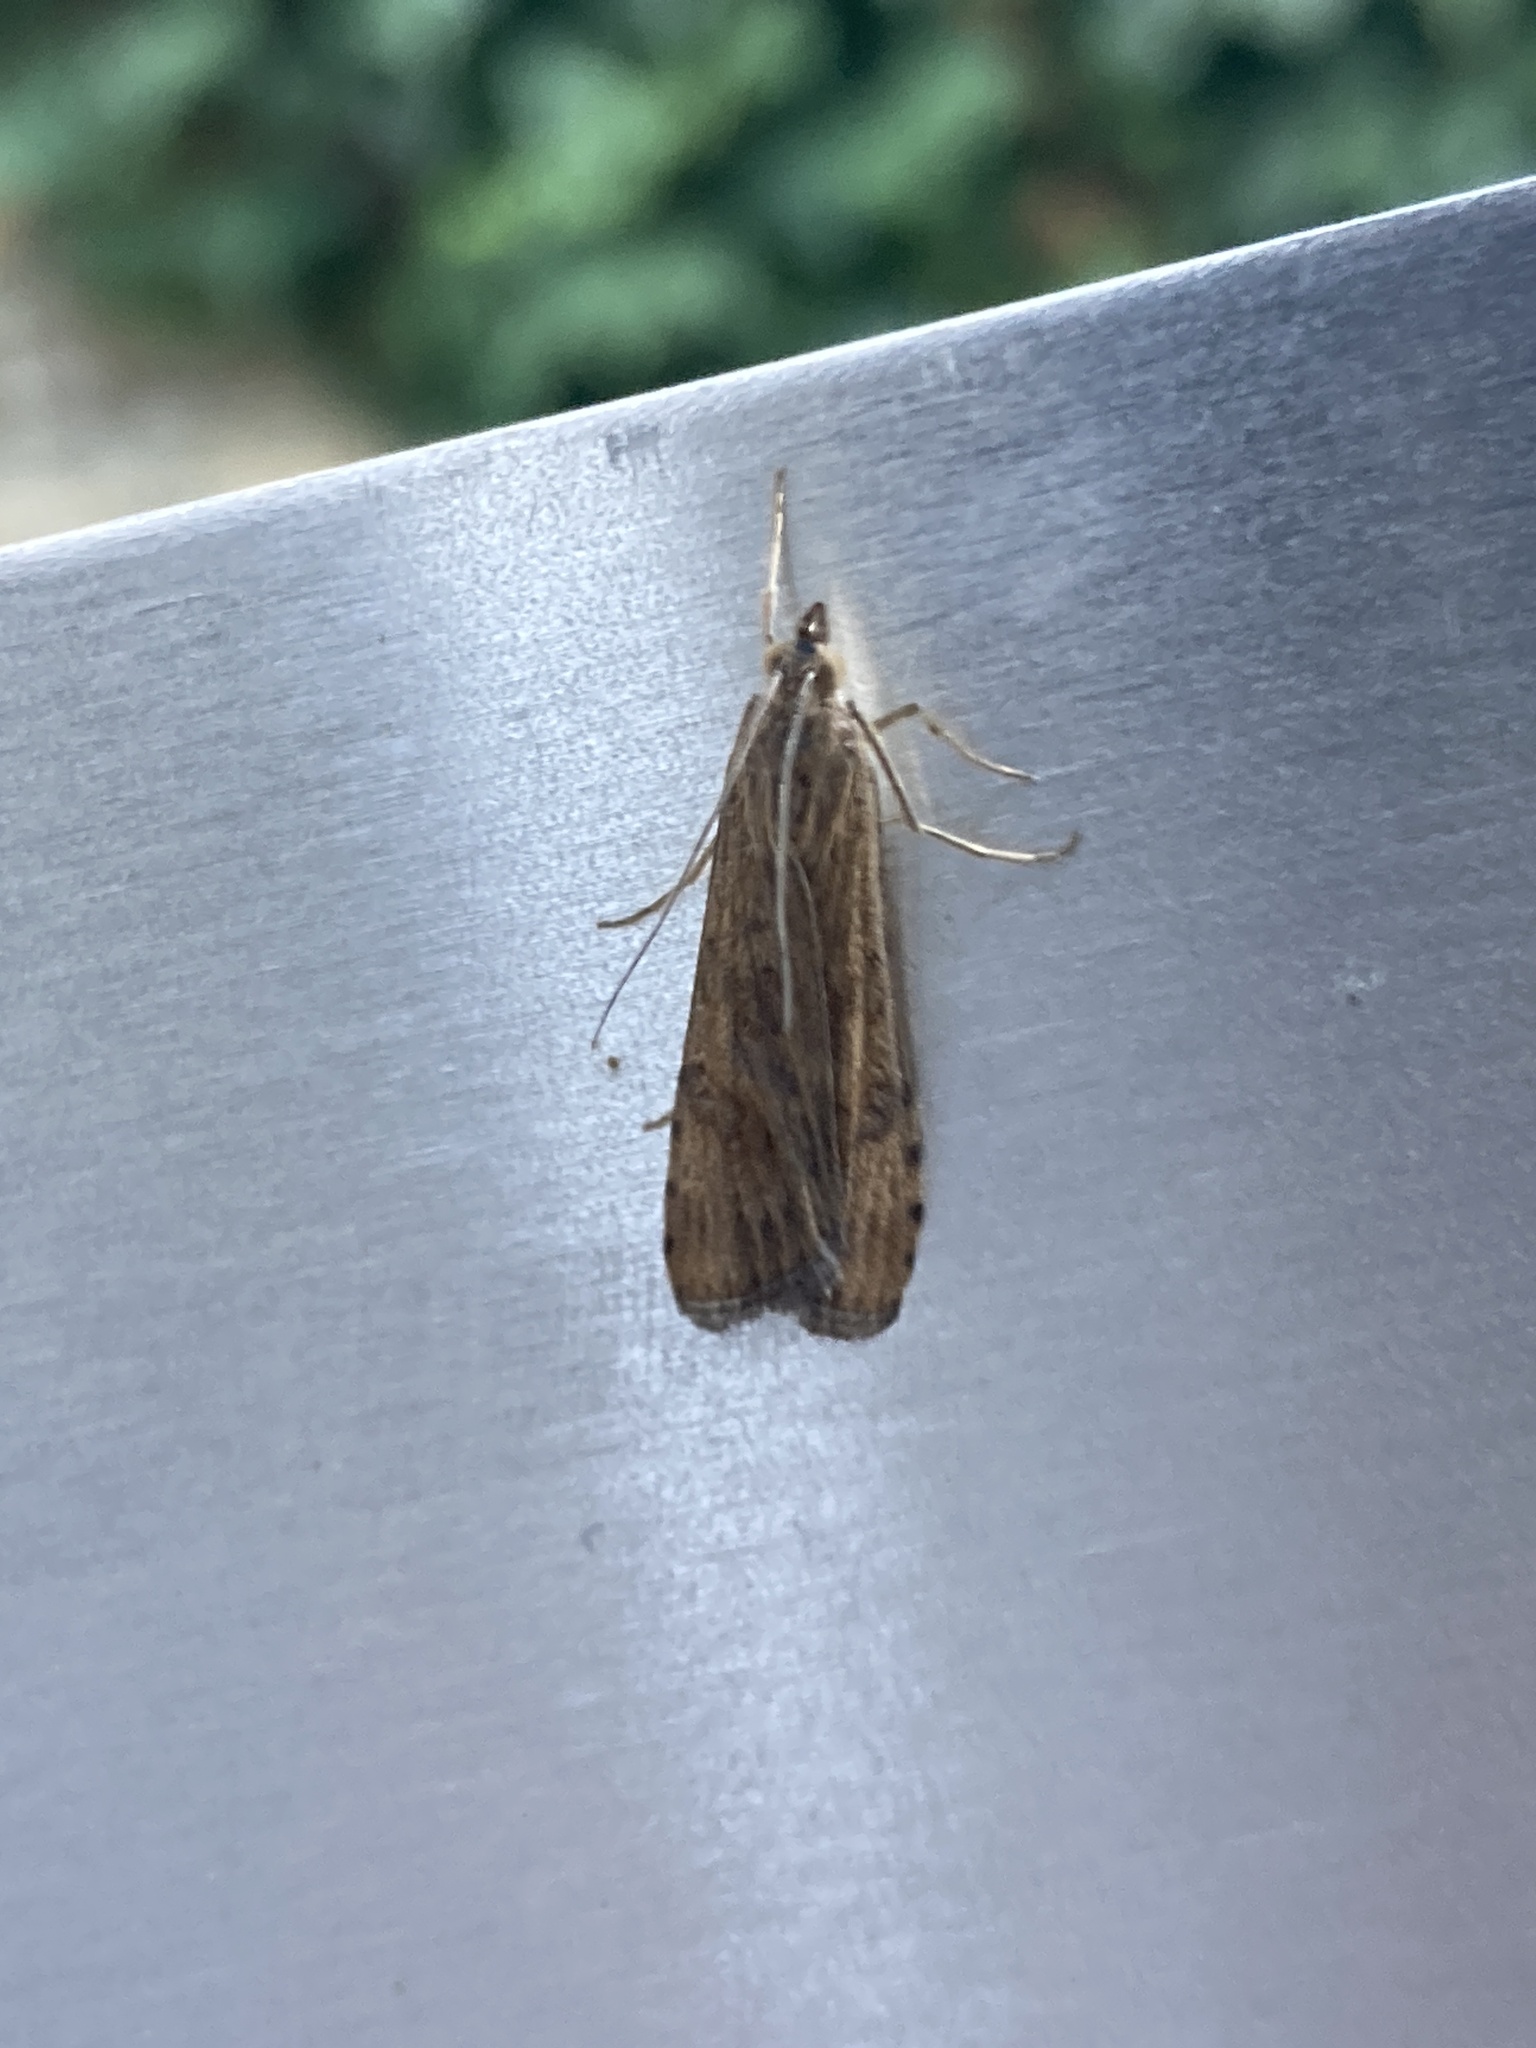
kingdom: Animalia
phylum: Arthropoda
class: Insecta
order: Lepidoptera
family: Crambidae
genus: Nomophila
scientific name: Nomophila noctuella
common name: Rush veneer
